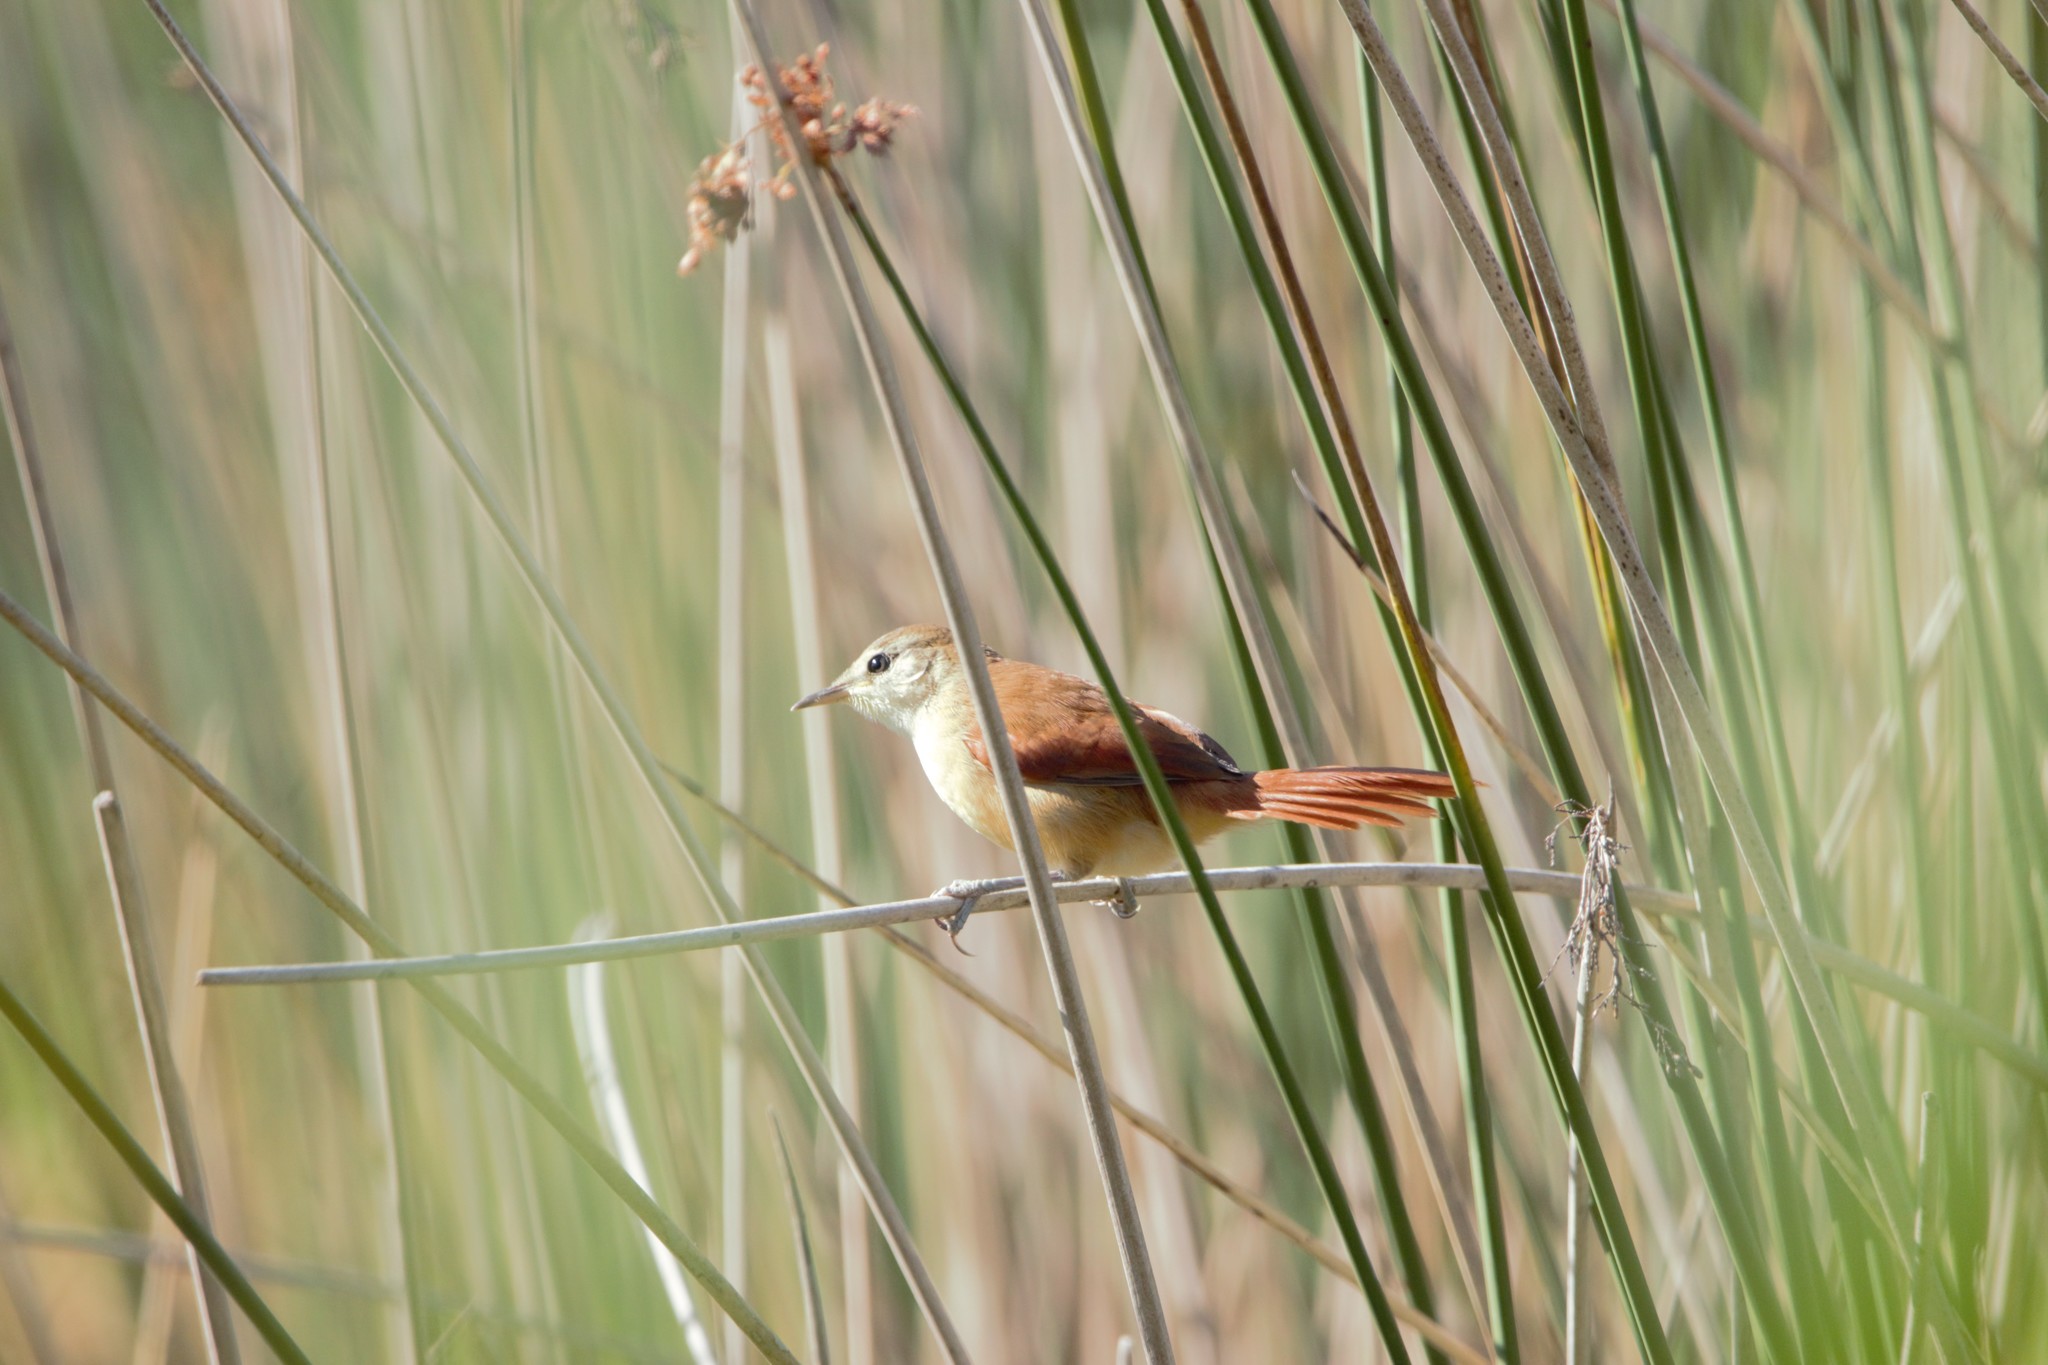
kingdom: Animalia
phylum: Chordata
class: Aves
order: Passeriformes
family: Furnariidae
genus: Certhiaxis
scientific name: Certhiaxis cinnamomeus
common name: Yellow-chinned spinetail
